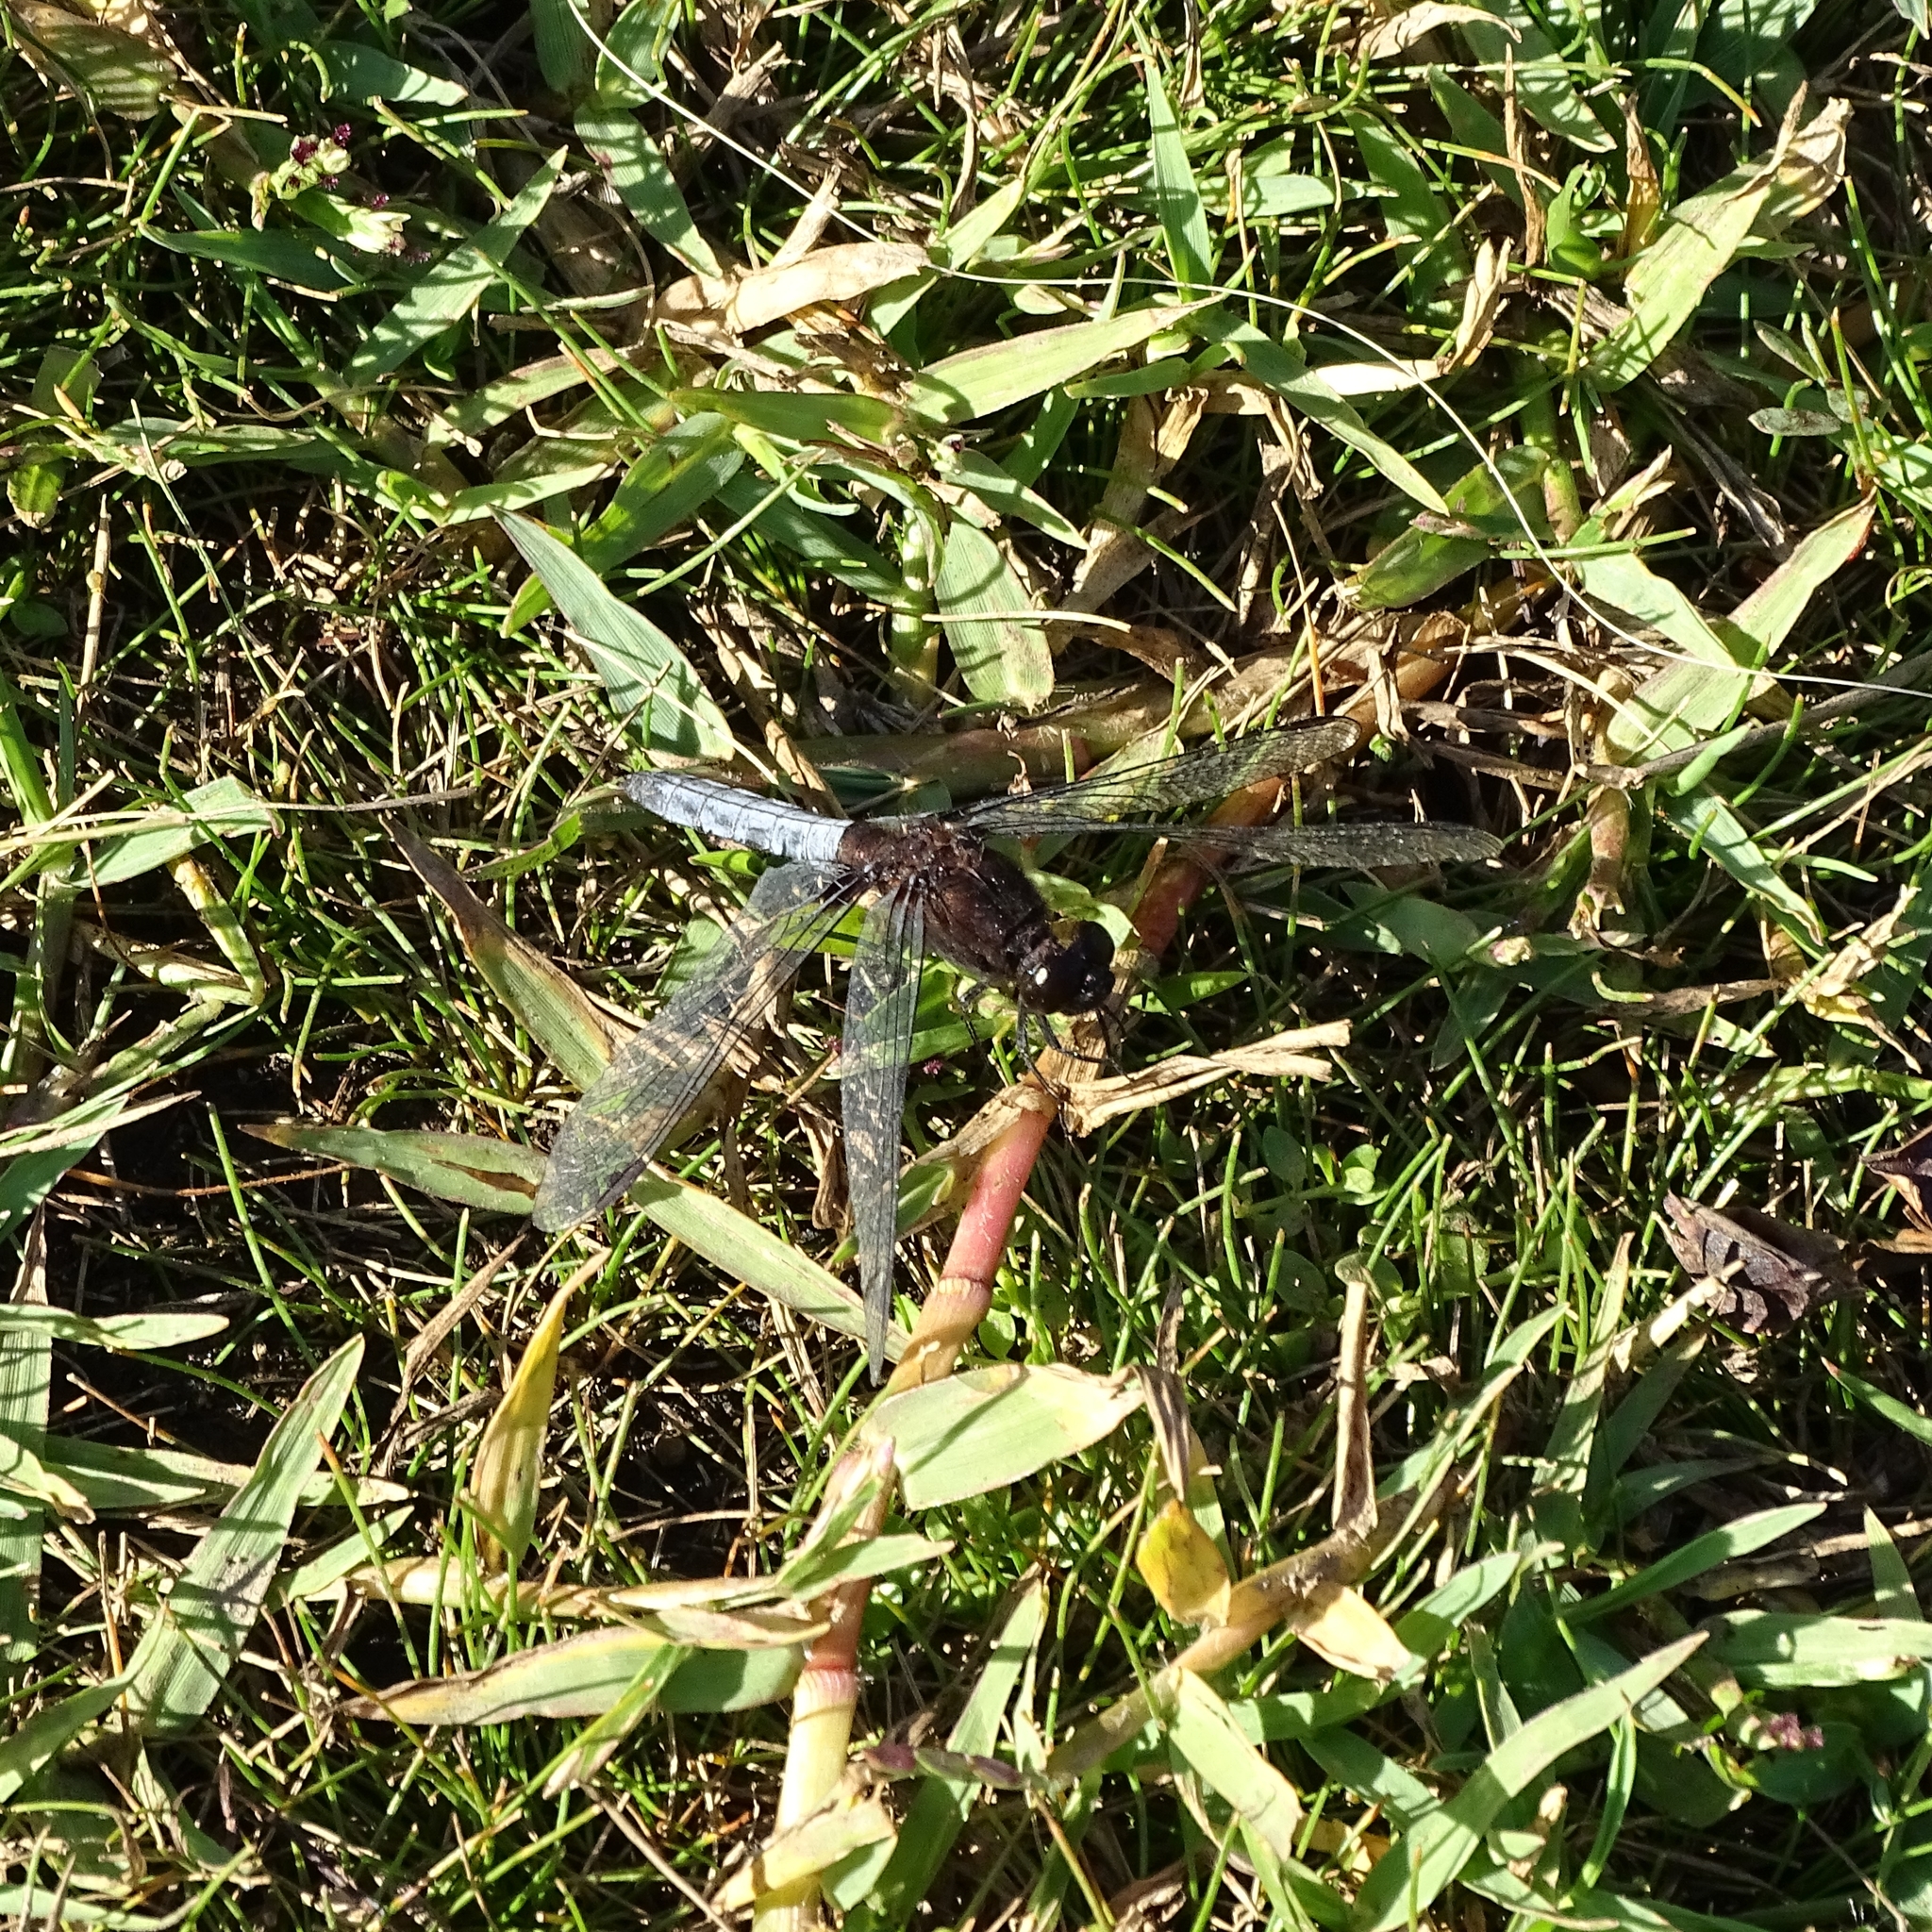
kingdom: Animalia
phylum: Arthropoda
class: Insecta
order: Odonata
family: Libellulidae
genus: Erythrodiplax
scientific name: Erythrodiplax connata
